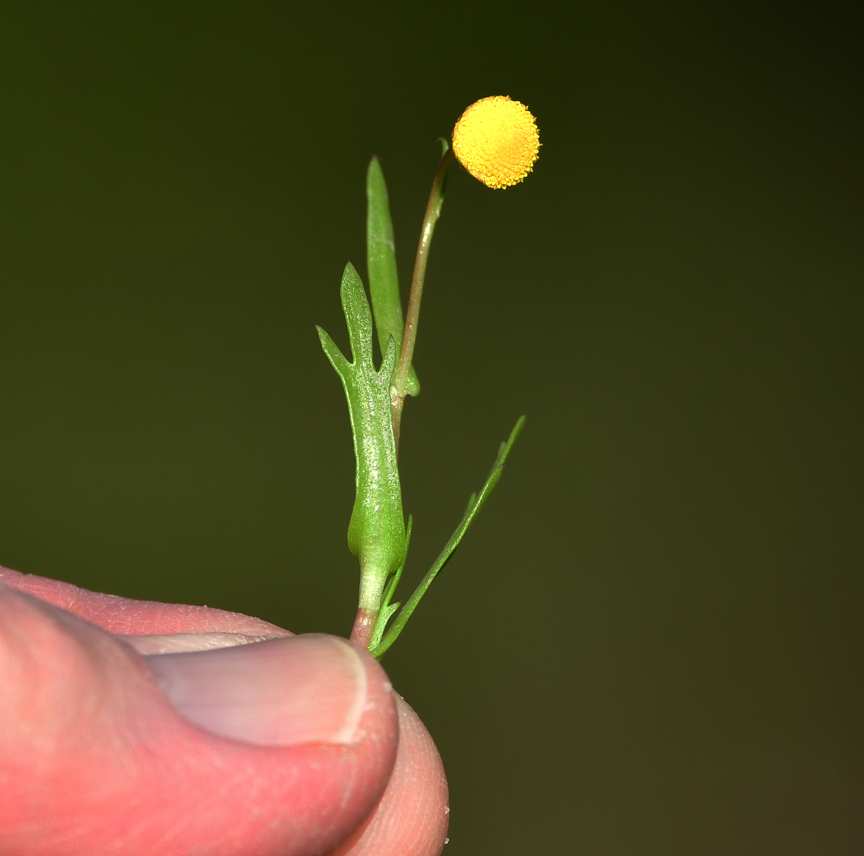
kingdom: Plantae
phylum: Tracheophyta
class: Magnoliopsida
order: Asterales
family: Asteraceae
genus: Cotula
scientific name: Cotula coronopifolia
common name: Buttonweed
